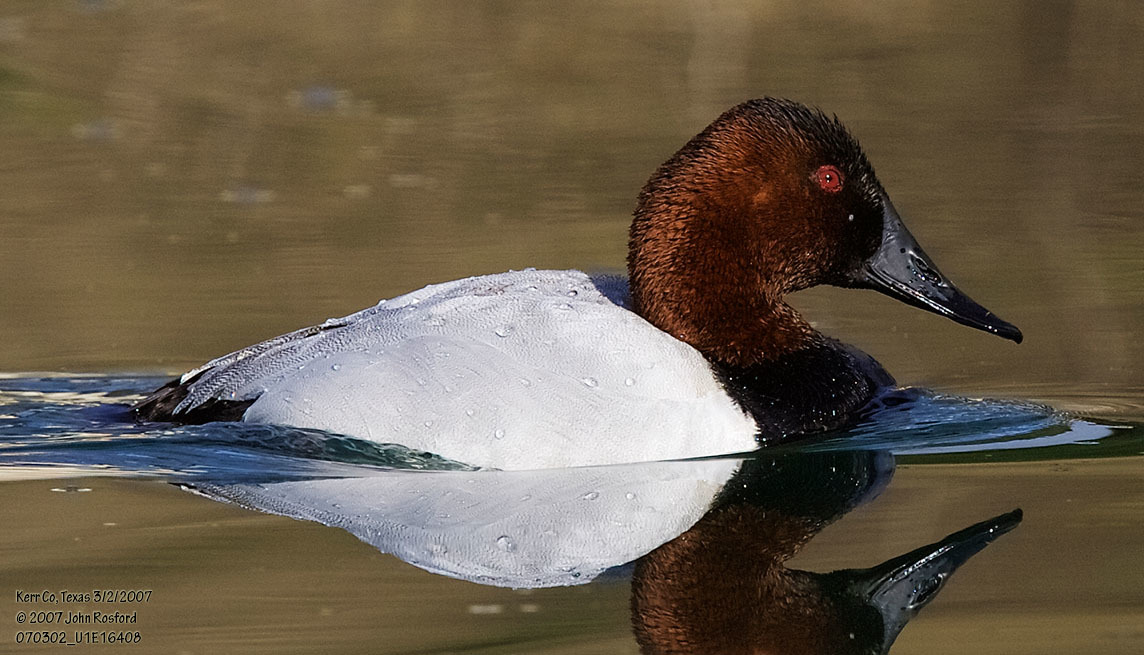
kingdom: Animalia
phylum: Chordata
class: Aves
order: Anseriformes
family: Anatidae
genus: Aythya
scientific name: Aythya valisineria
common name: Canvasback
